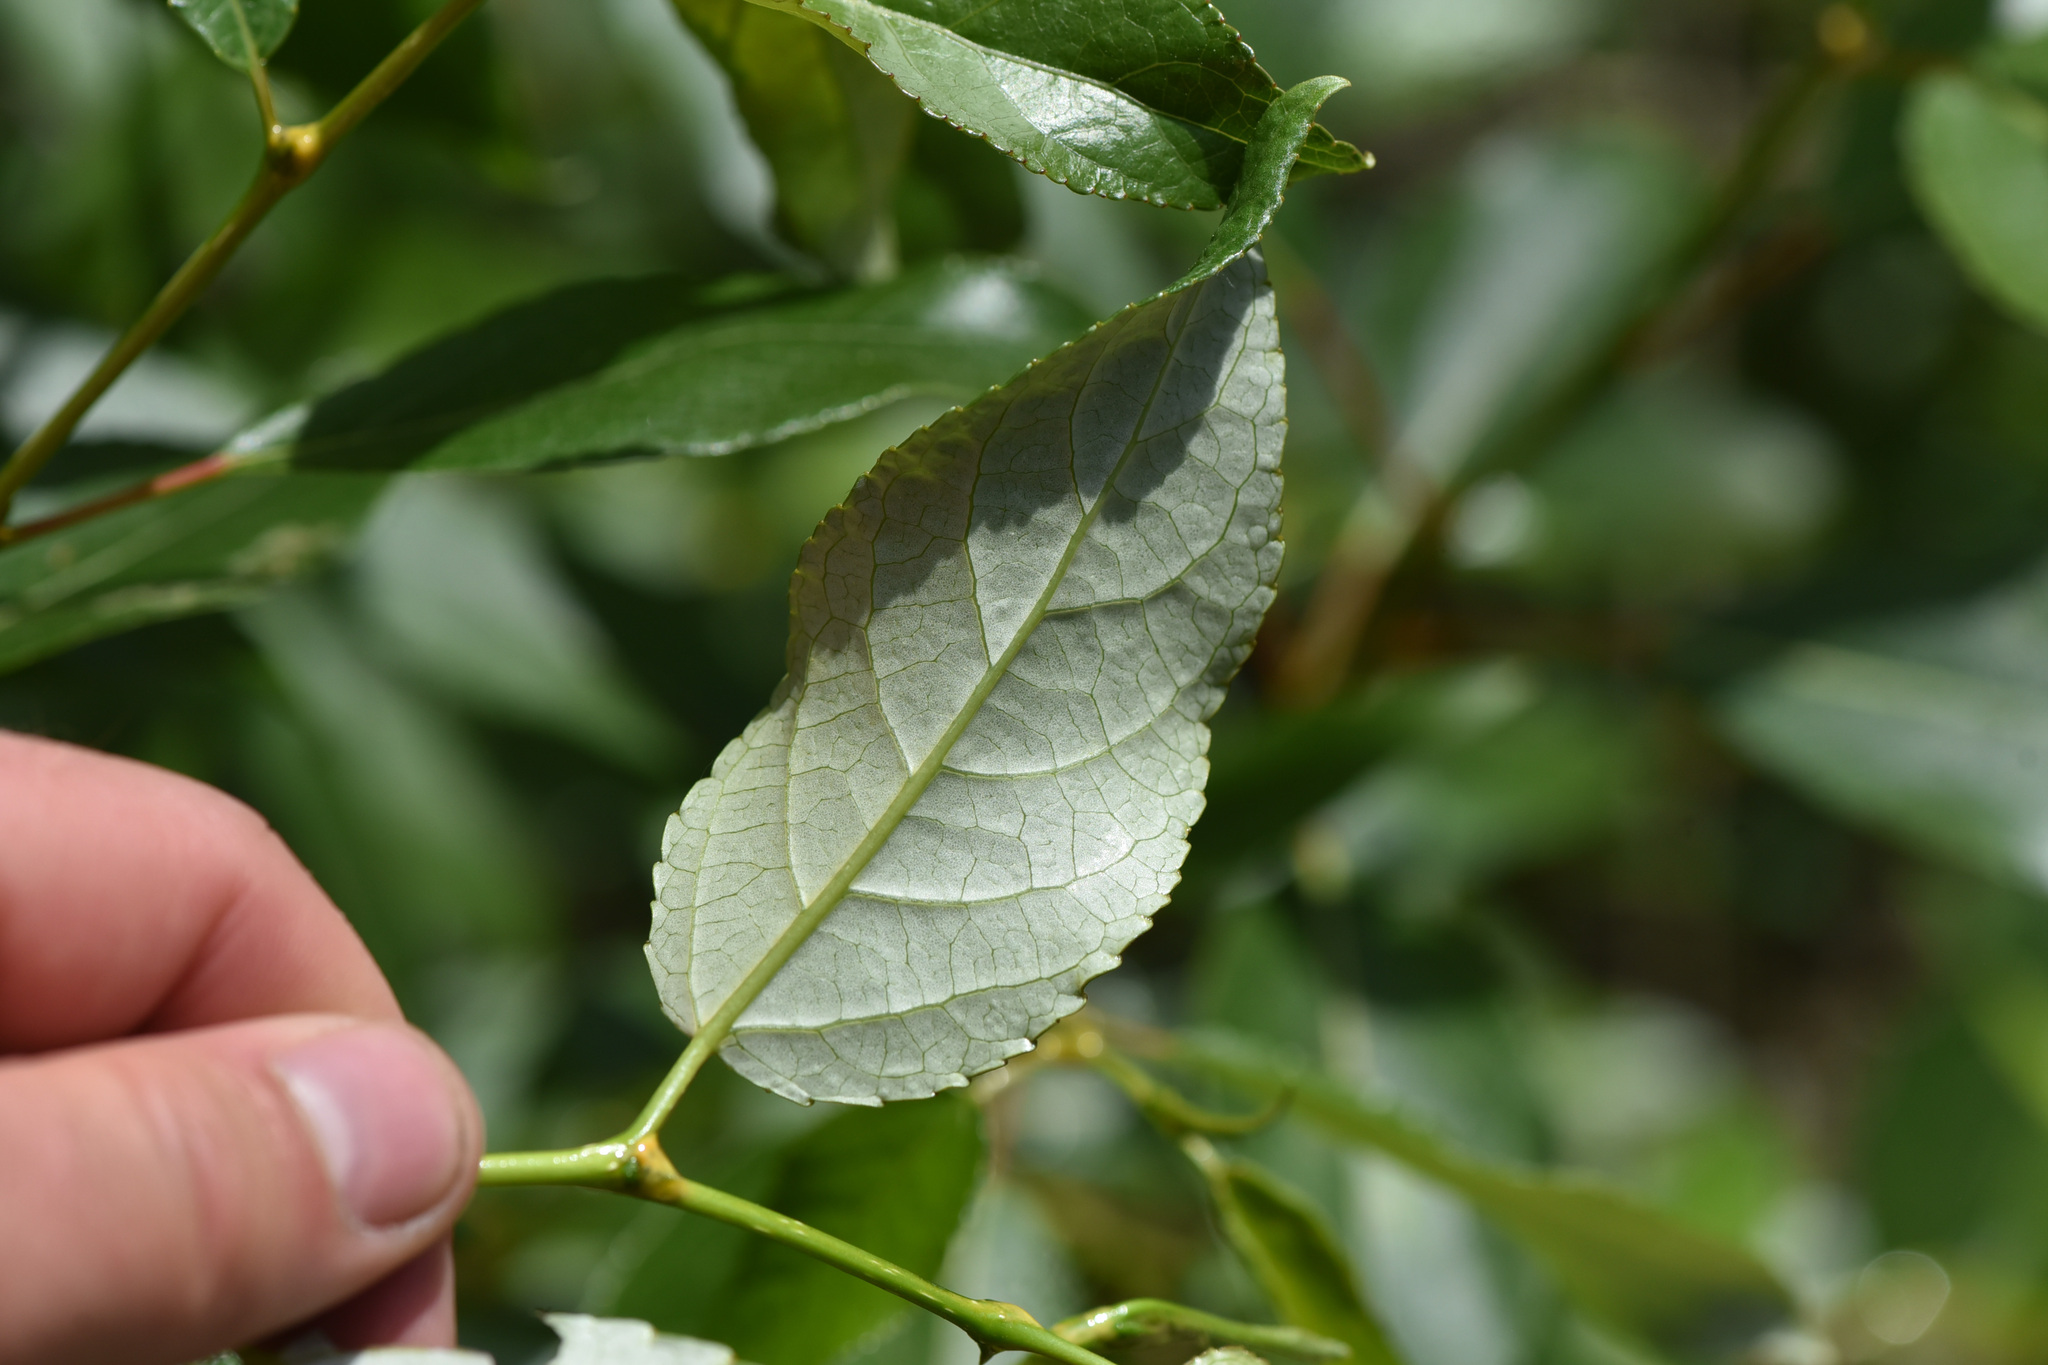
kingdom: Plantae
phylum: Tracheophyta
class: Magnoliopsida
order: Malpighiales
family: Salicaceae
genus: Populus
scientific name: Populus trichocarpa
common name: Black cottonwood
